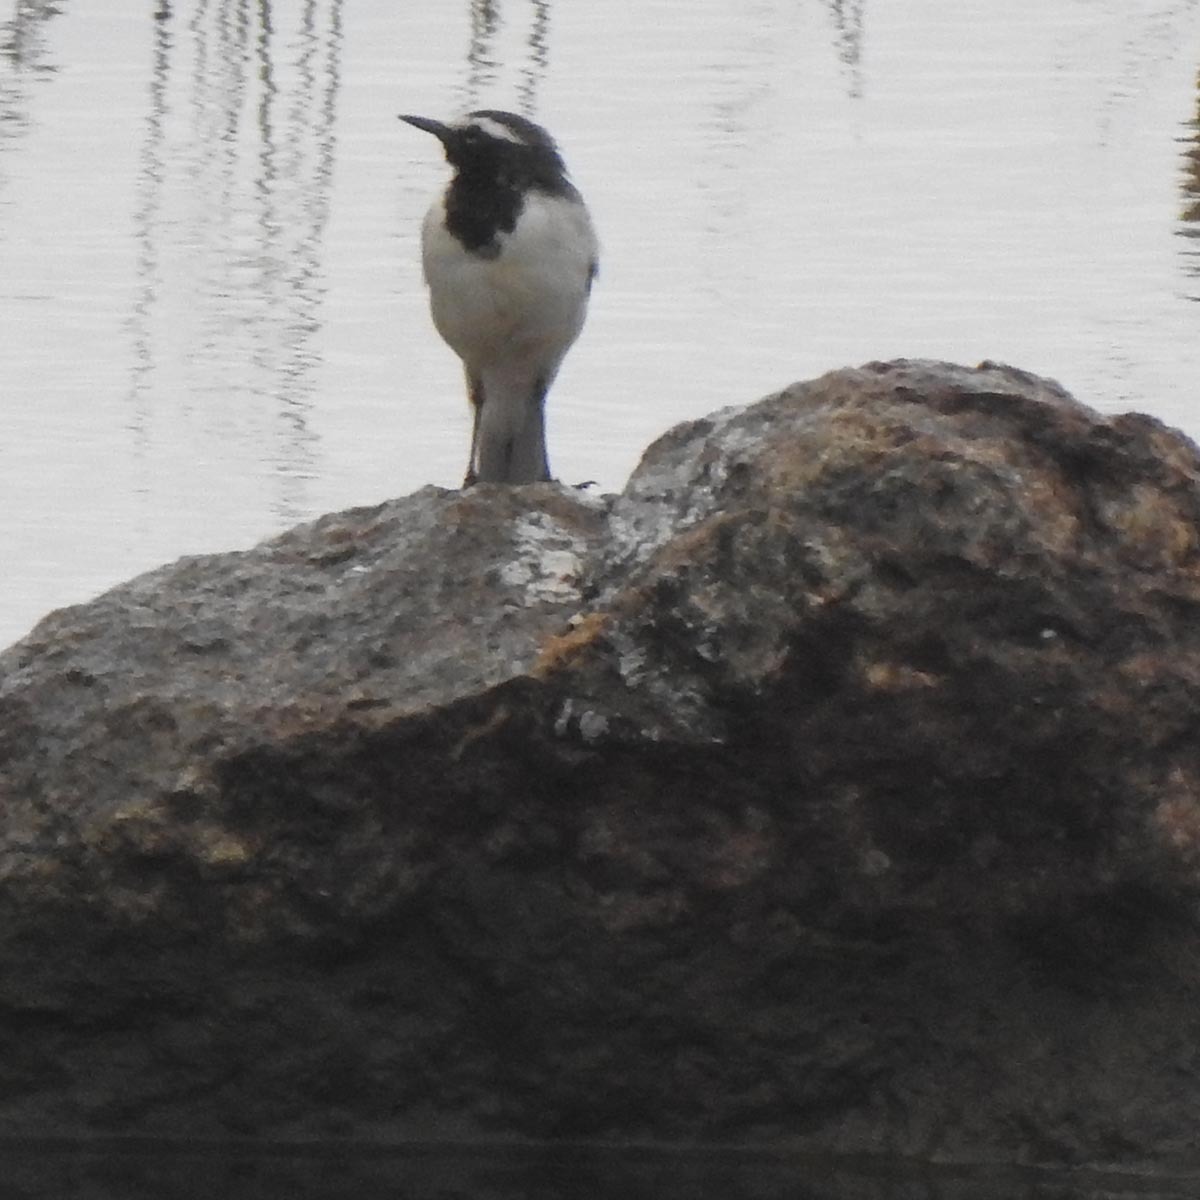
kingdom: Animalia
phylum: Chordata
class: Aves
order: Passeriformes
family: Motacillidae
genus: Motacilla
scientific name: Motacilla maderaspatensis
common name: White-browed wagtail
